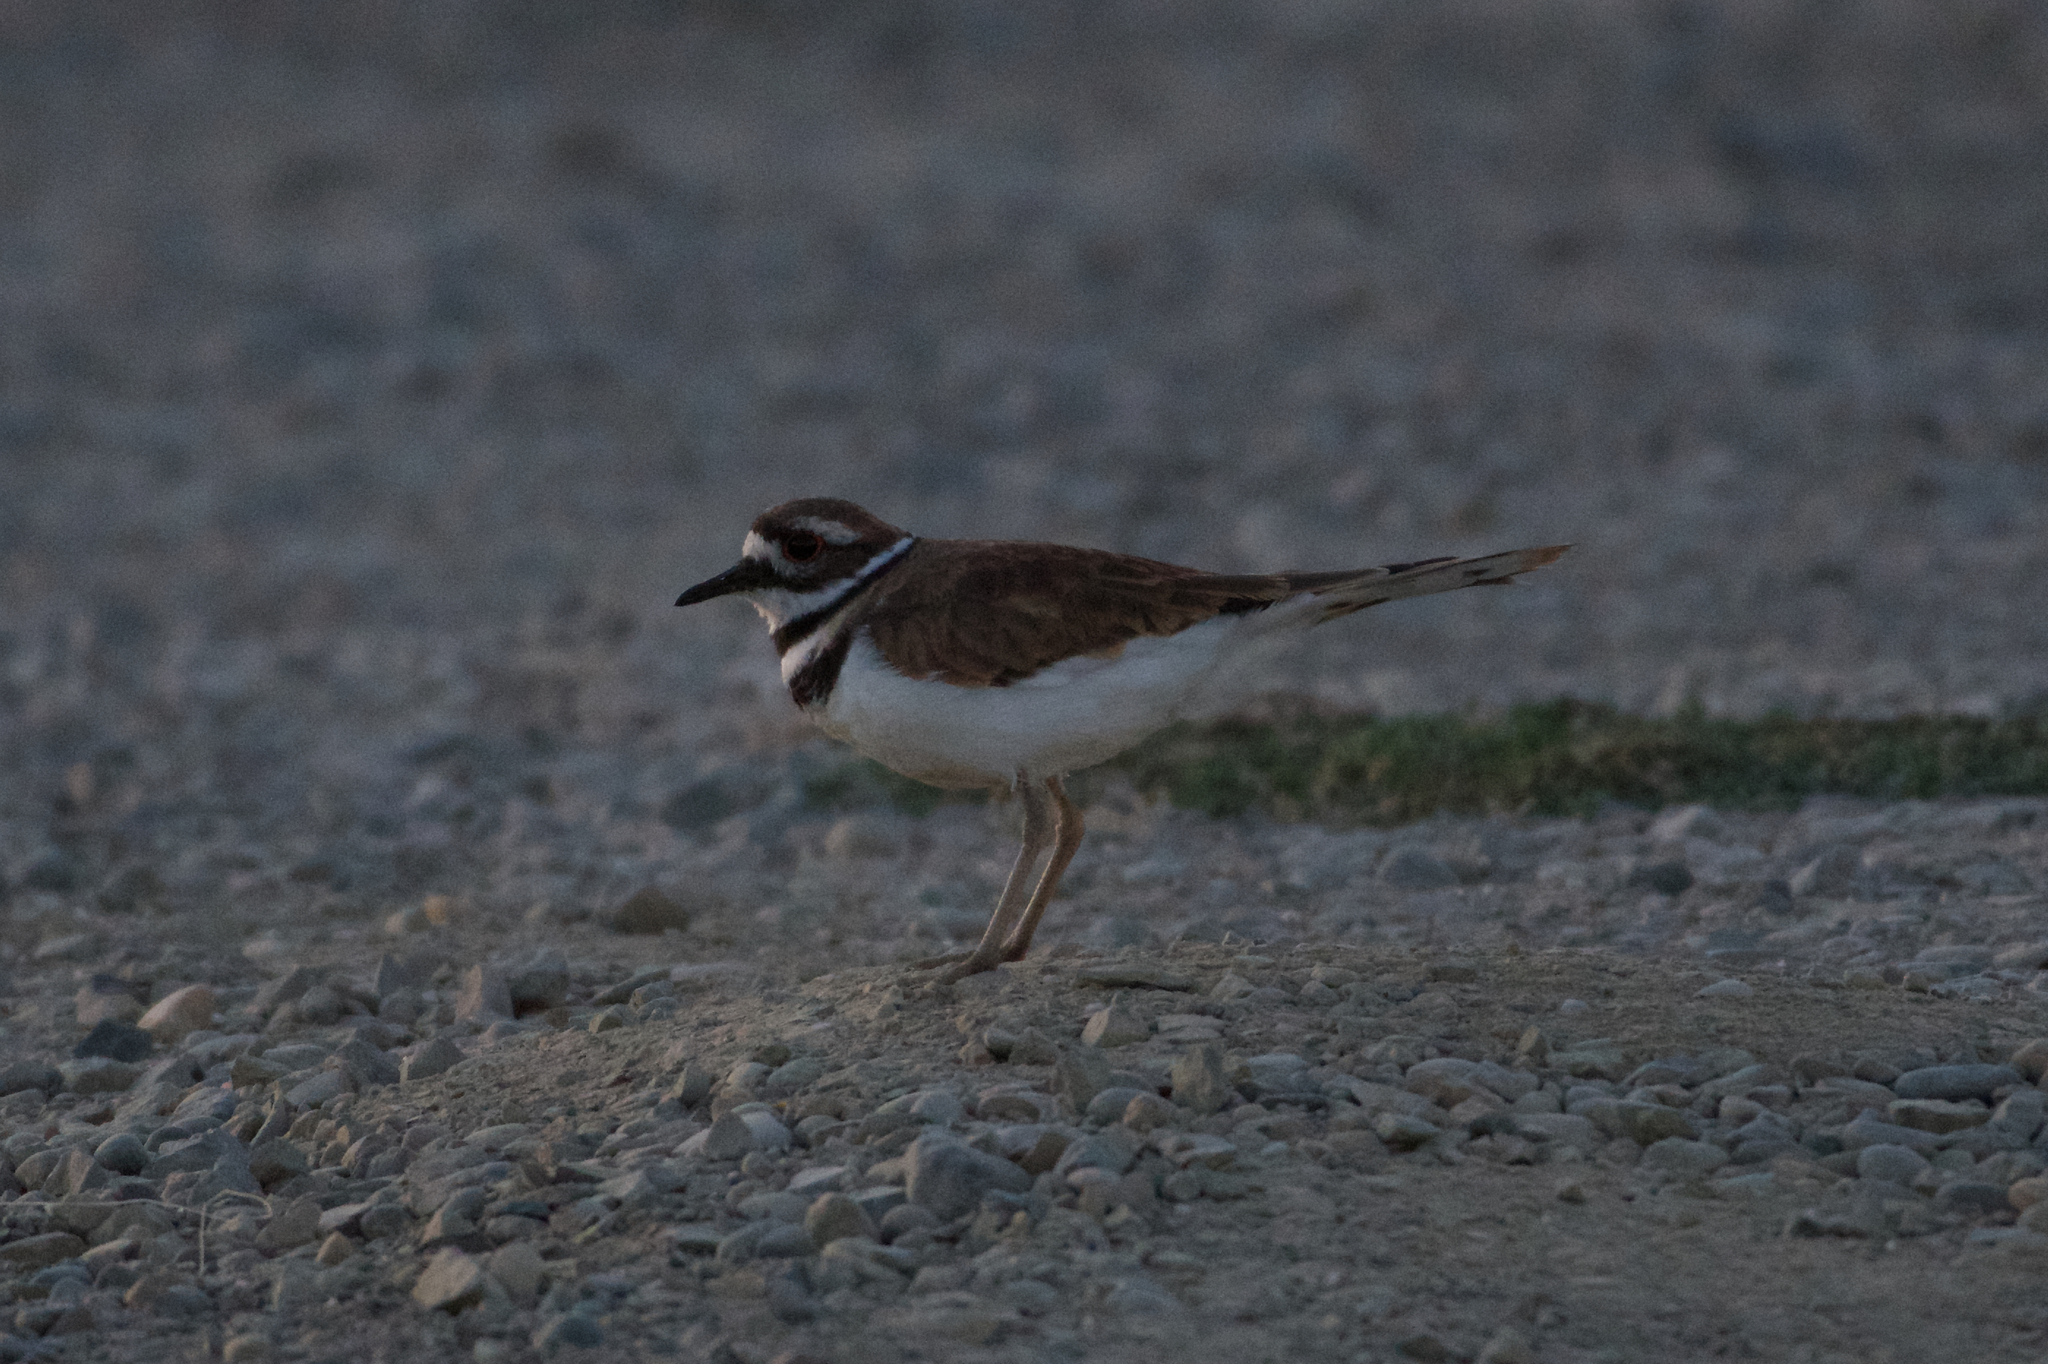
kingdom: Animalia
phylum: Chordata
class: Aves
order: Charadriiformes
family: Charadriidae
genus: Charadrius
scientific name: Charadrius vociferus
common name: Killdeer
